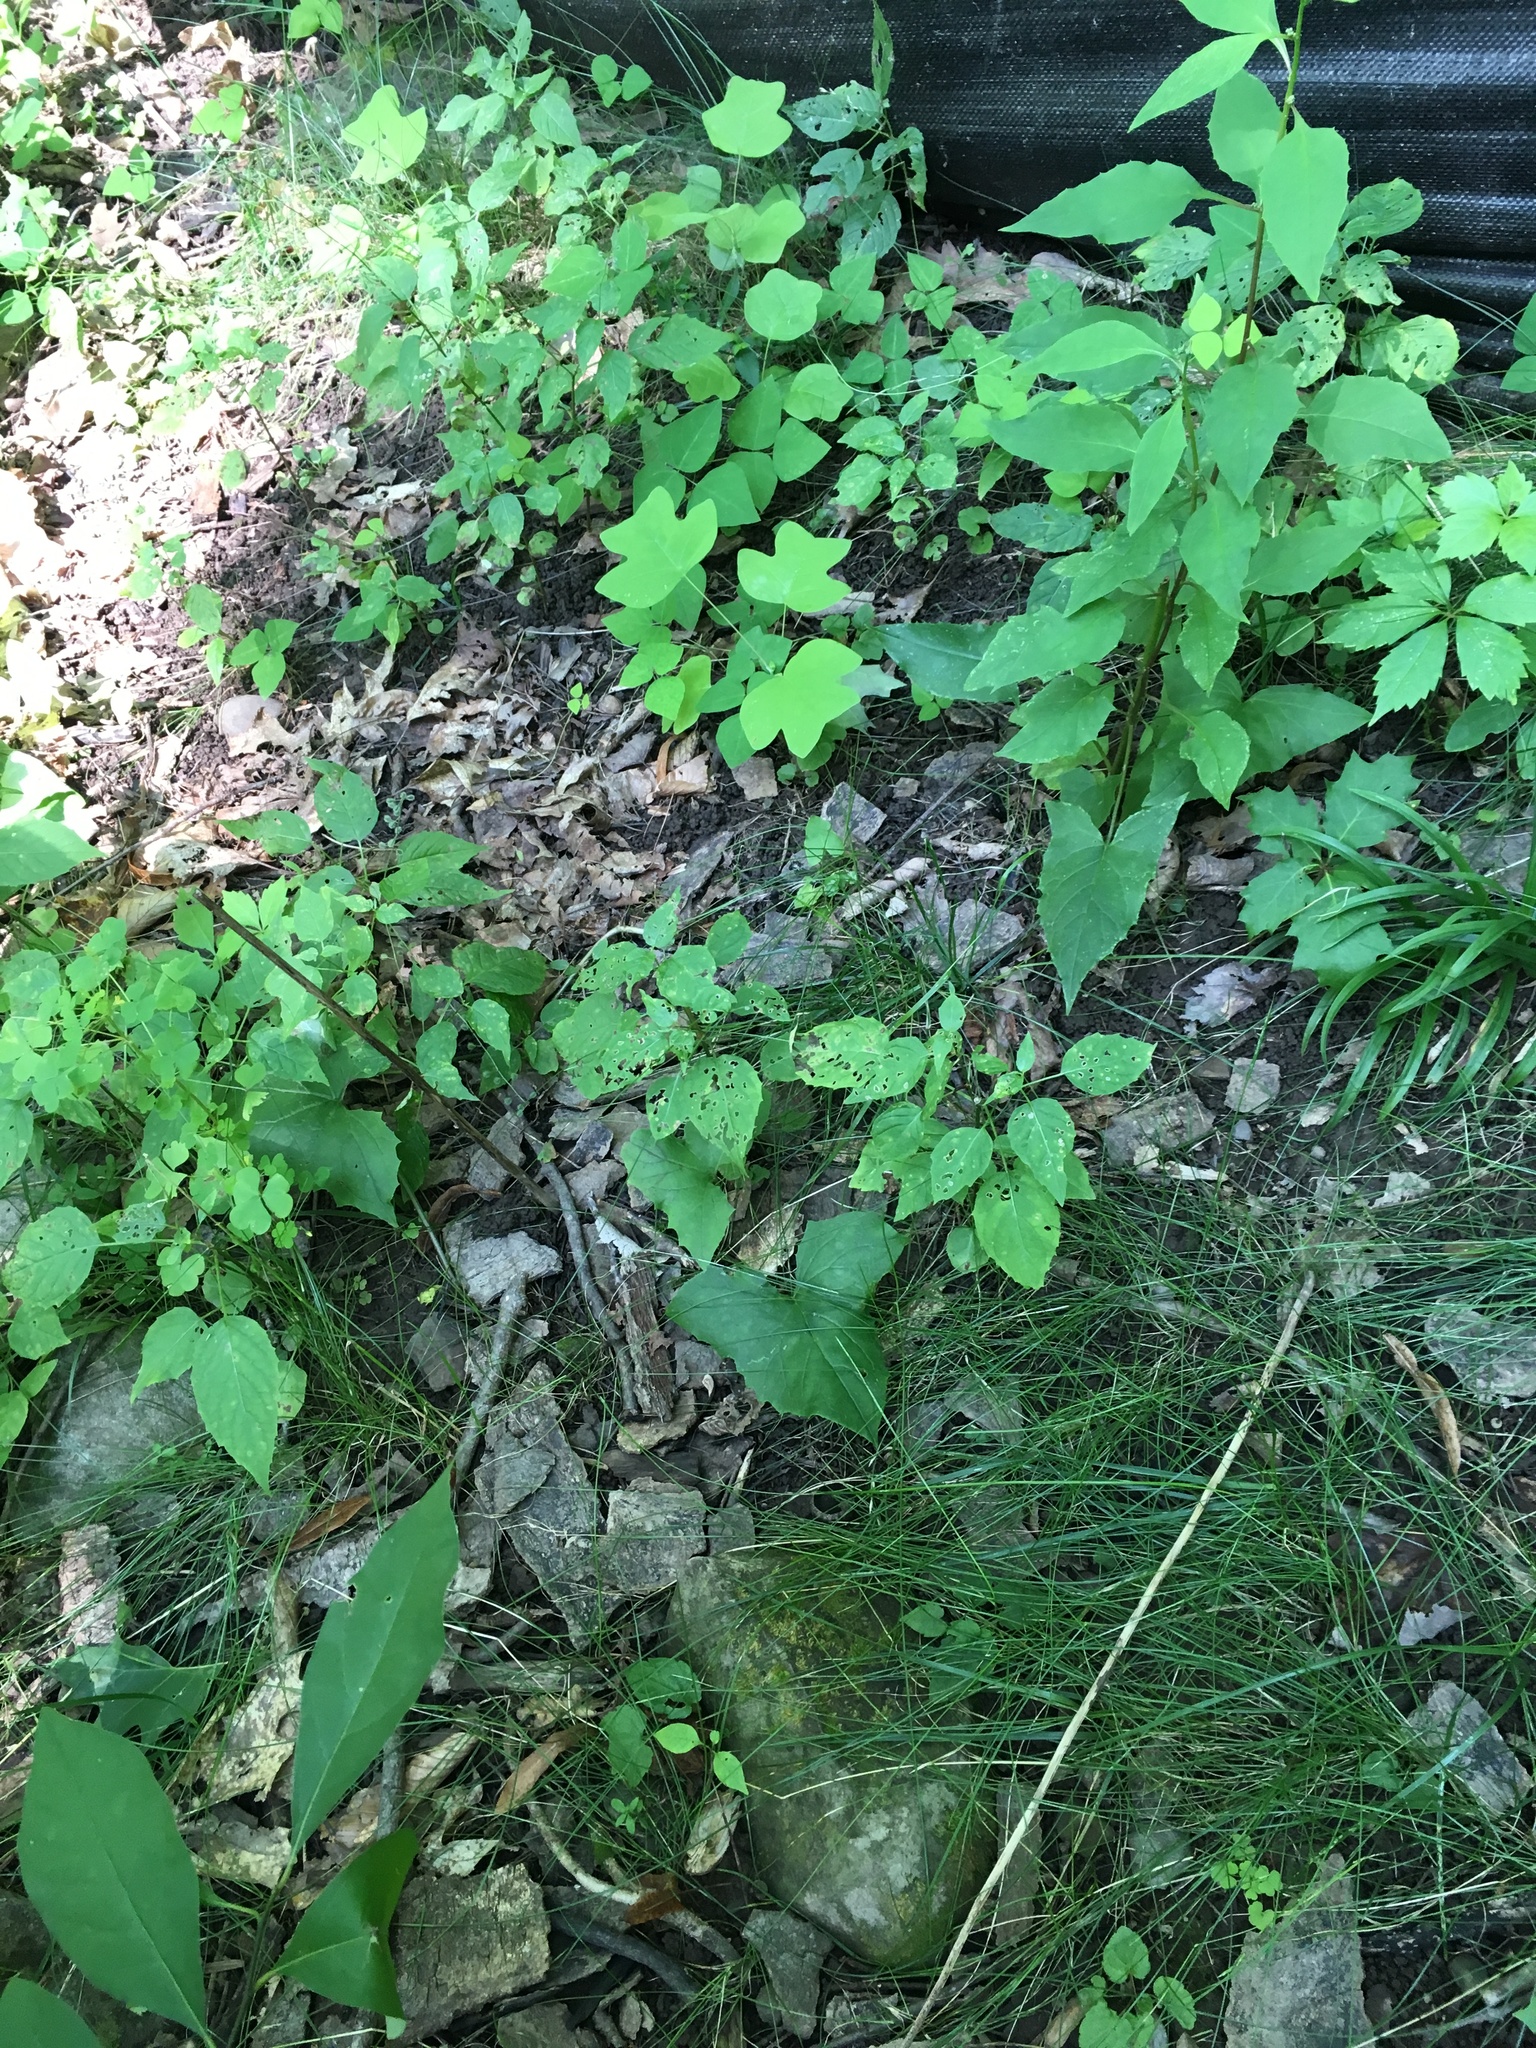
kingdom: Plantae
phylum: Tracheophyta
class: Magnoliopsida
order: Magnoliales
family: Magnoliaceae
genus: Liriodendron
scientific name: Liriodendron tulipifera
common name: Tulip tree
